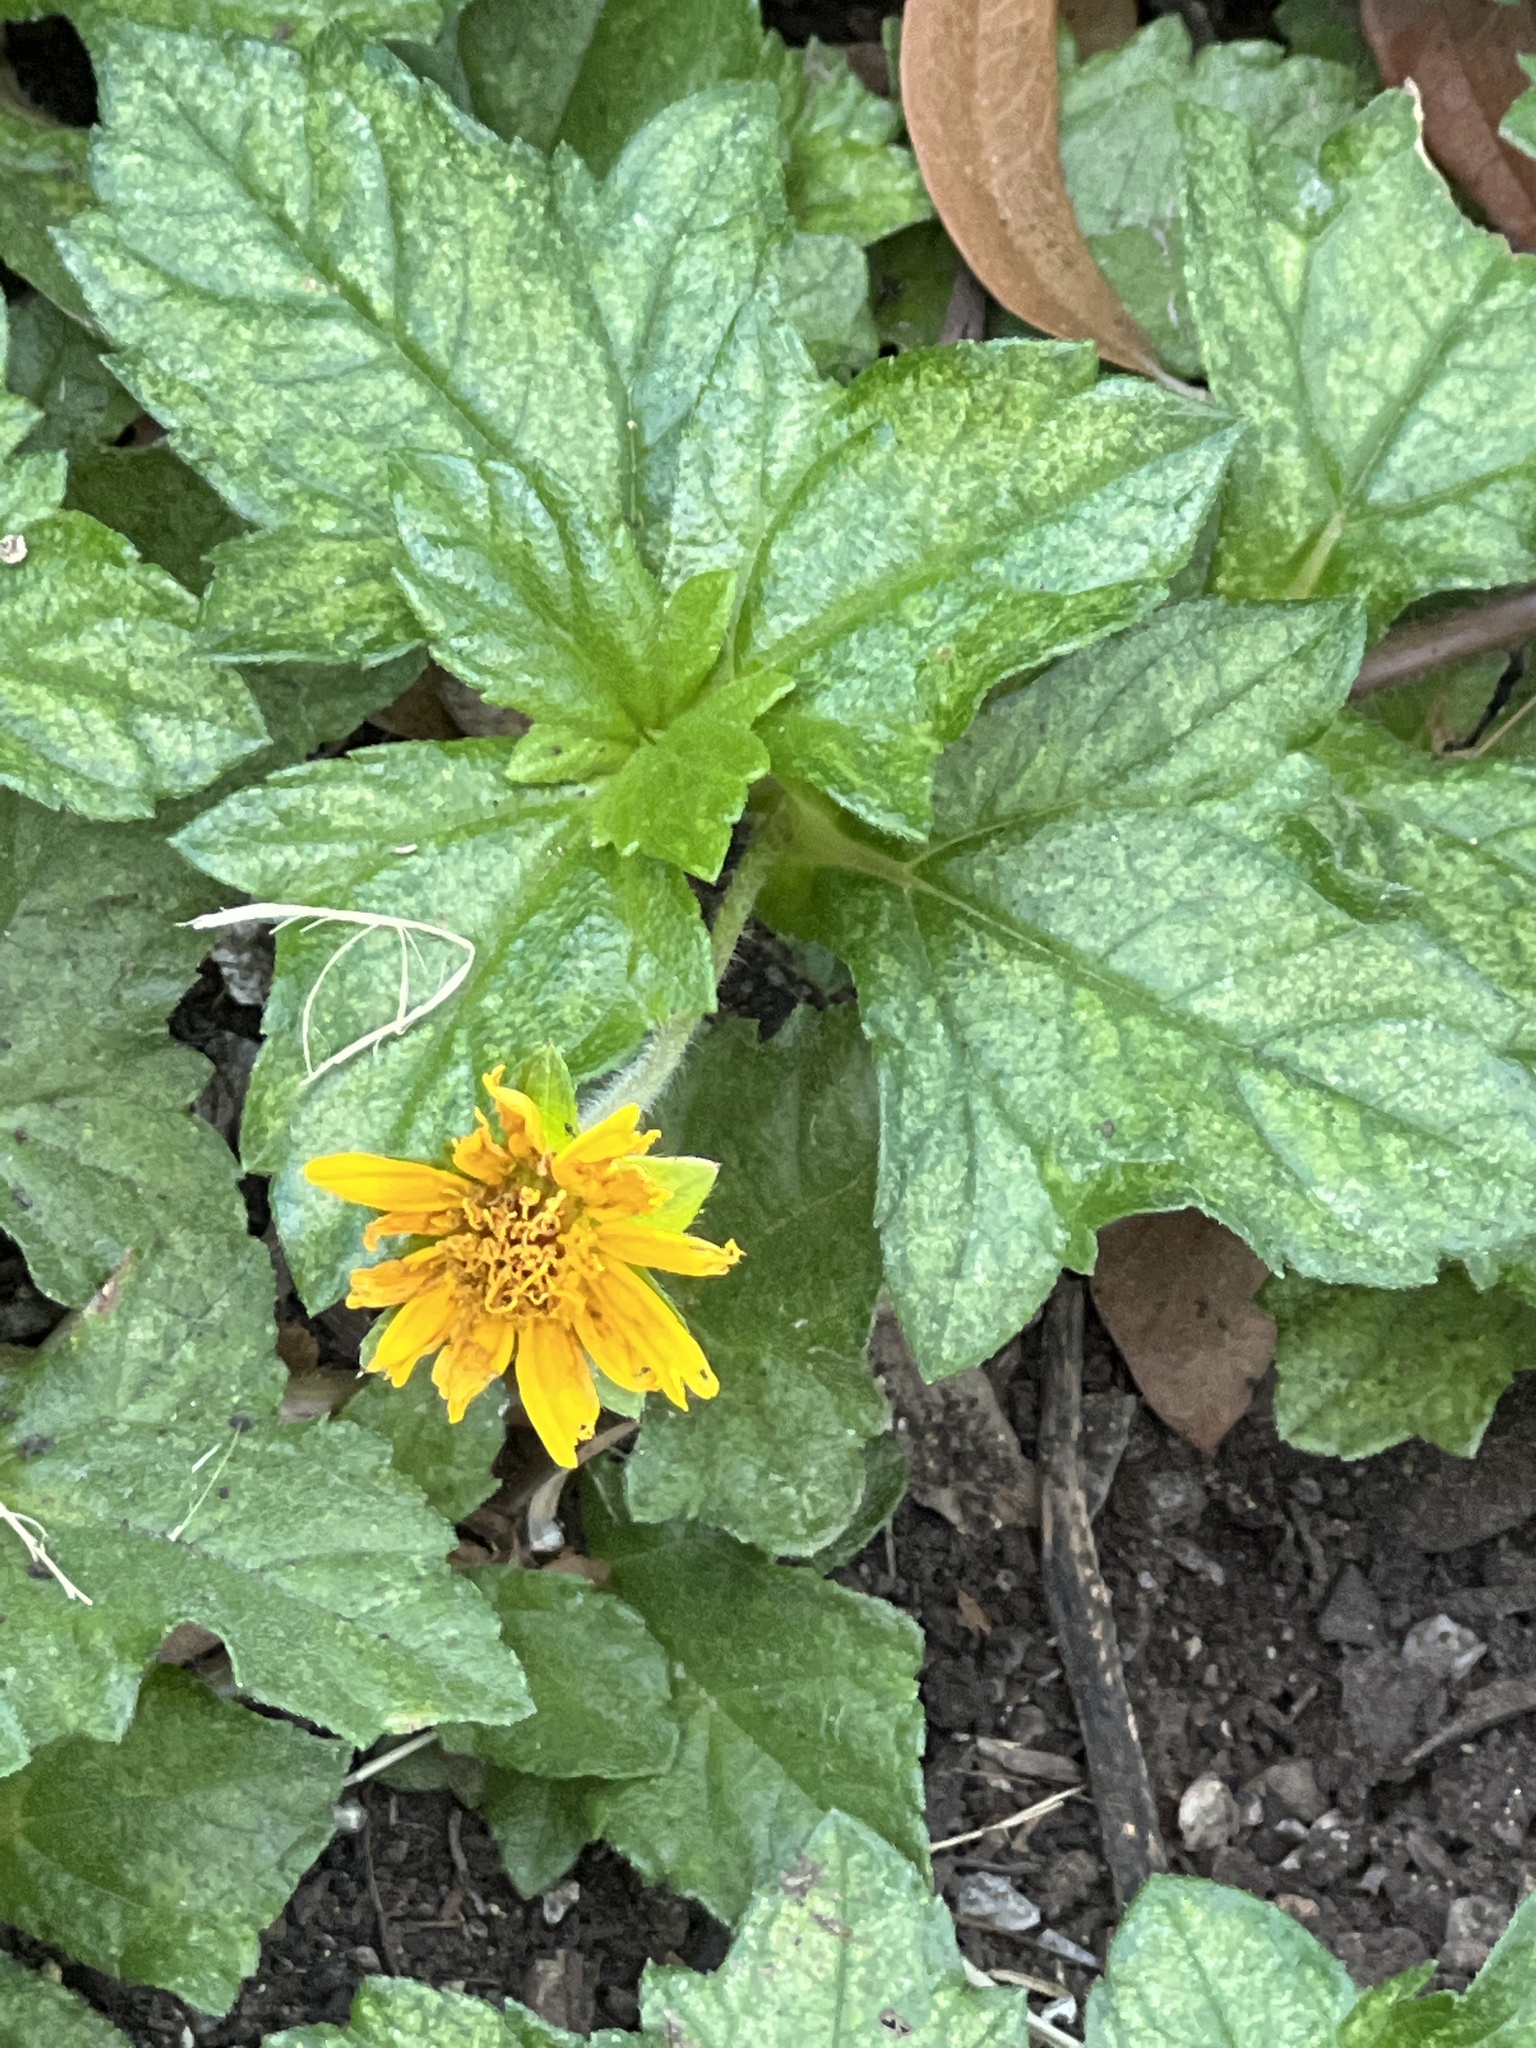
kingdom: Plantae
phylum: Tracheophyta
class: Magnoliopsida
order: Asterales
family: Asteraceae
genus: Sphagneticola
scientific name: Sphagneticola trilobata
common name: Bay biscayne creeping-oxeye
